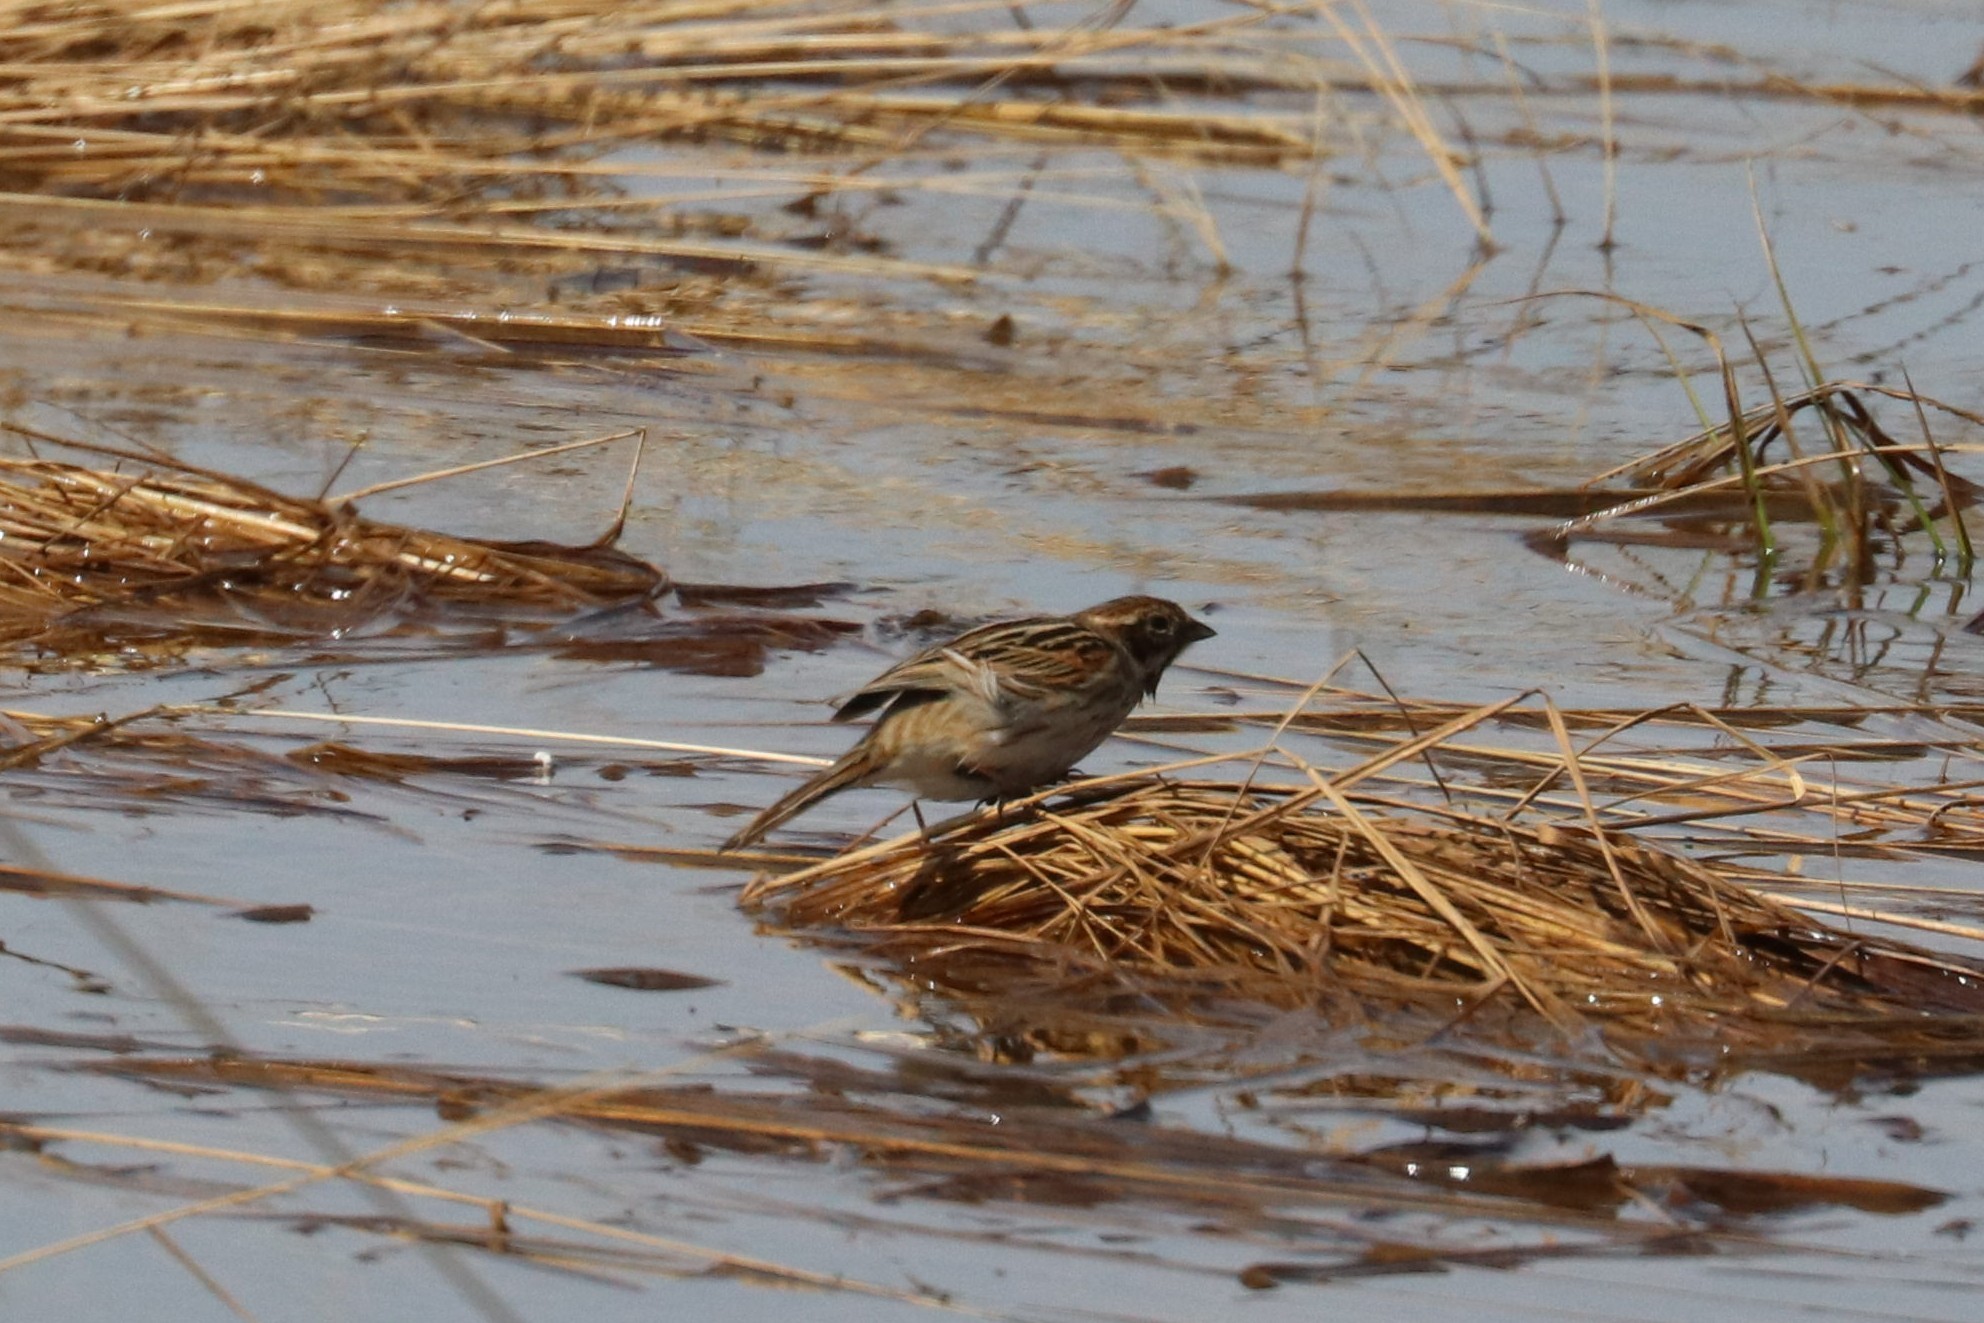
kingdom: Animalia
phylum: Chordata
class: Aves
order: Passeriformes
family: Emberizidae
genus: Emberiza
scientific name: Emberiza schoeniclus
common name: Reed bunting
